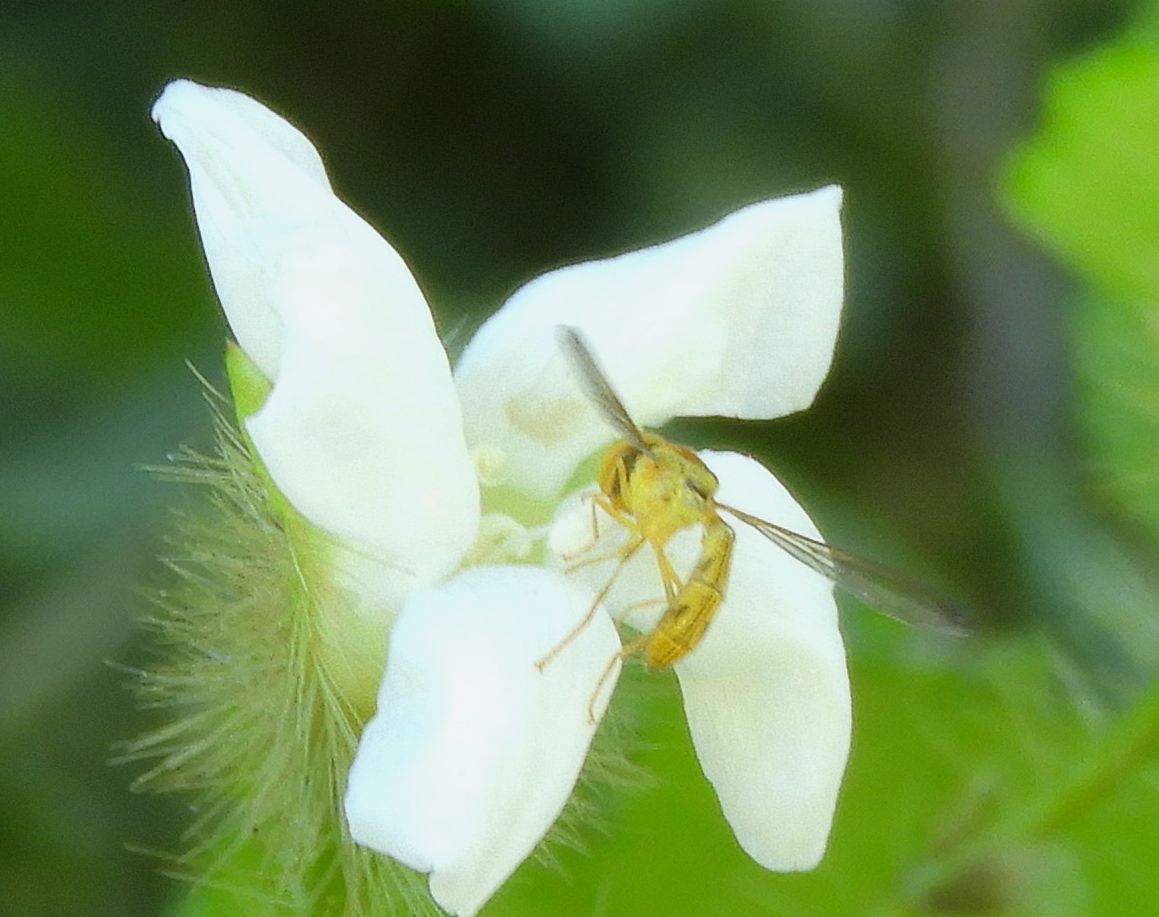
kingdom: Animalia
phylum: Arthropoda
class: Insecta
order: Diptera
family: Syrphidae
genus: Hybobathus
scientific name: Hybobathus
